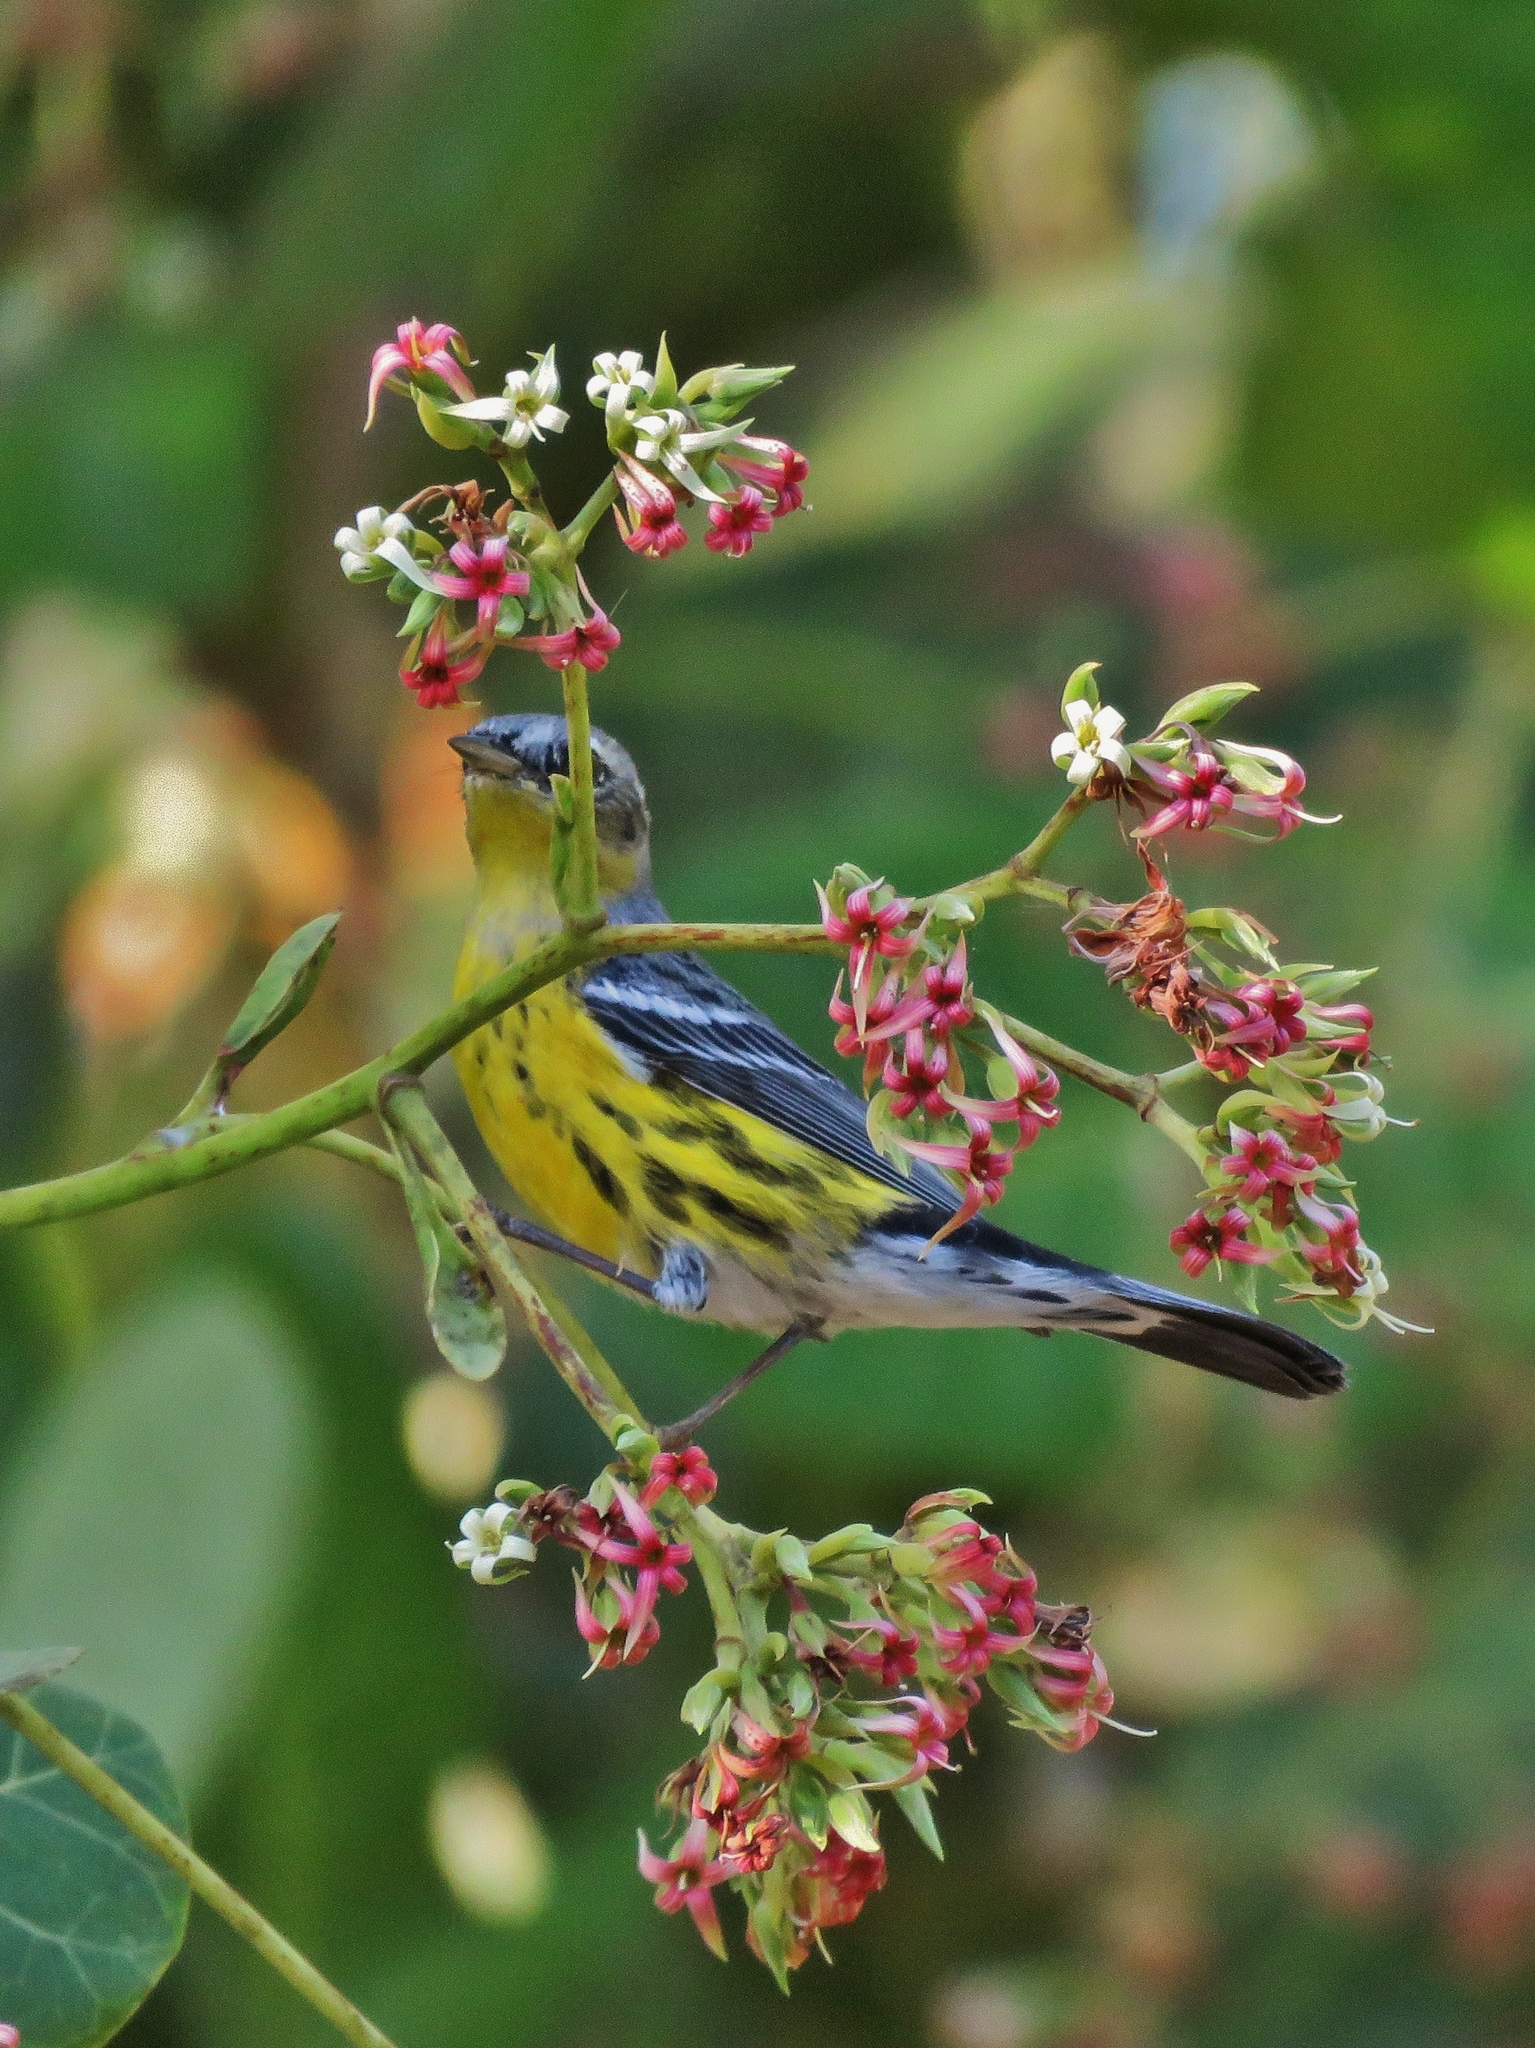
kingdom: Animalia
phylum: Chordata
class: Aves
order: Passeriformes
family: Parulidae
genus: Setophaga
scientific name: Setophaga magnolia
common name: Magnolia warbler
